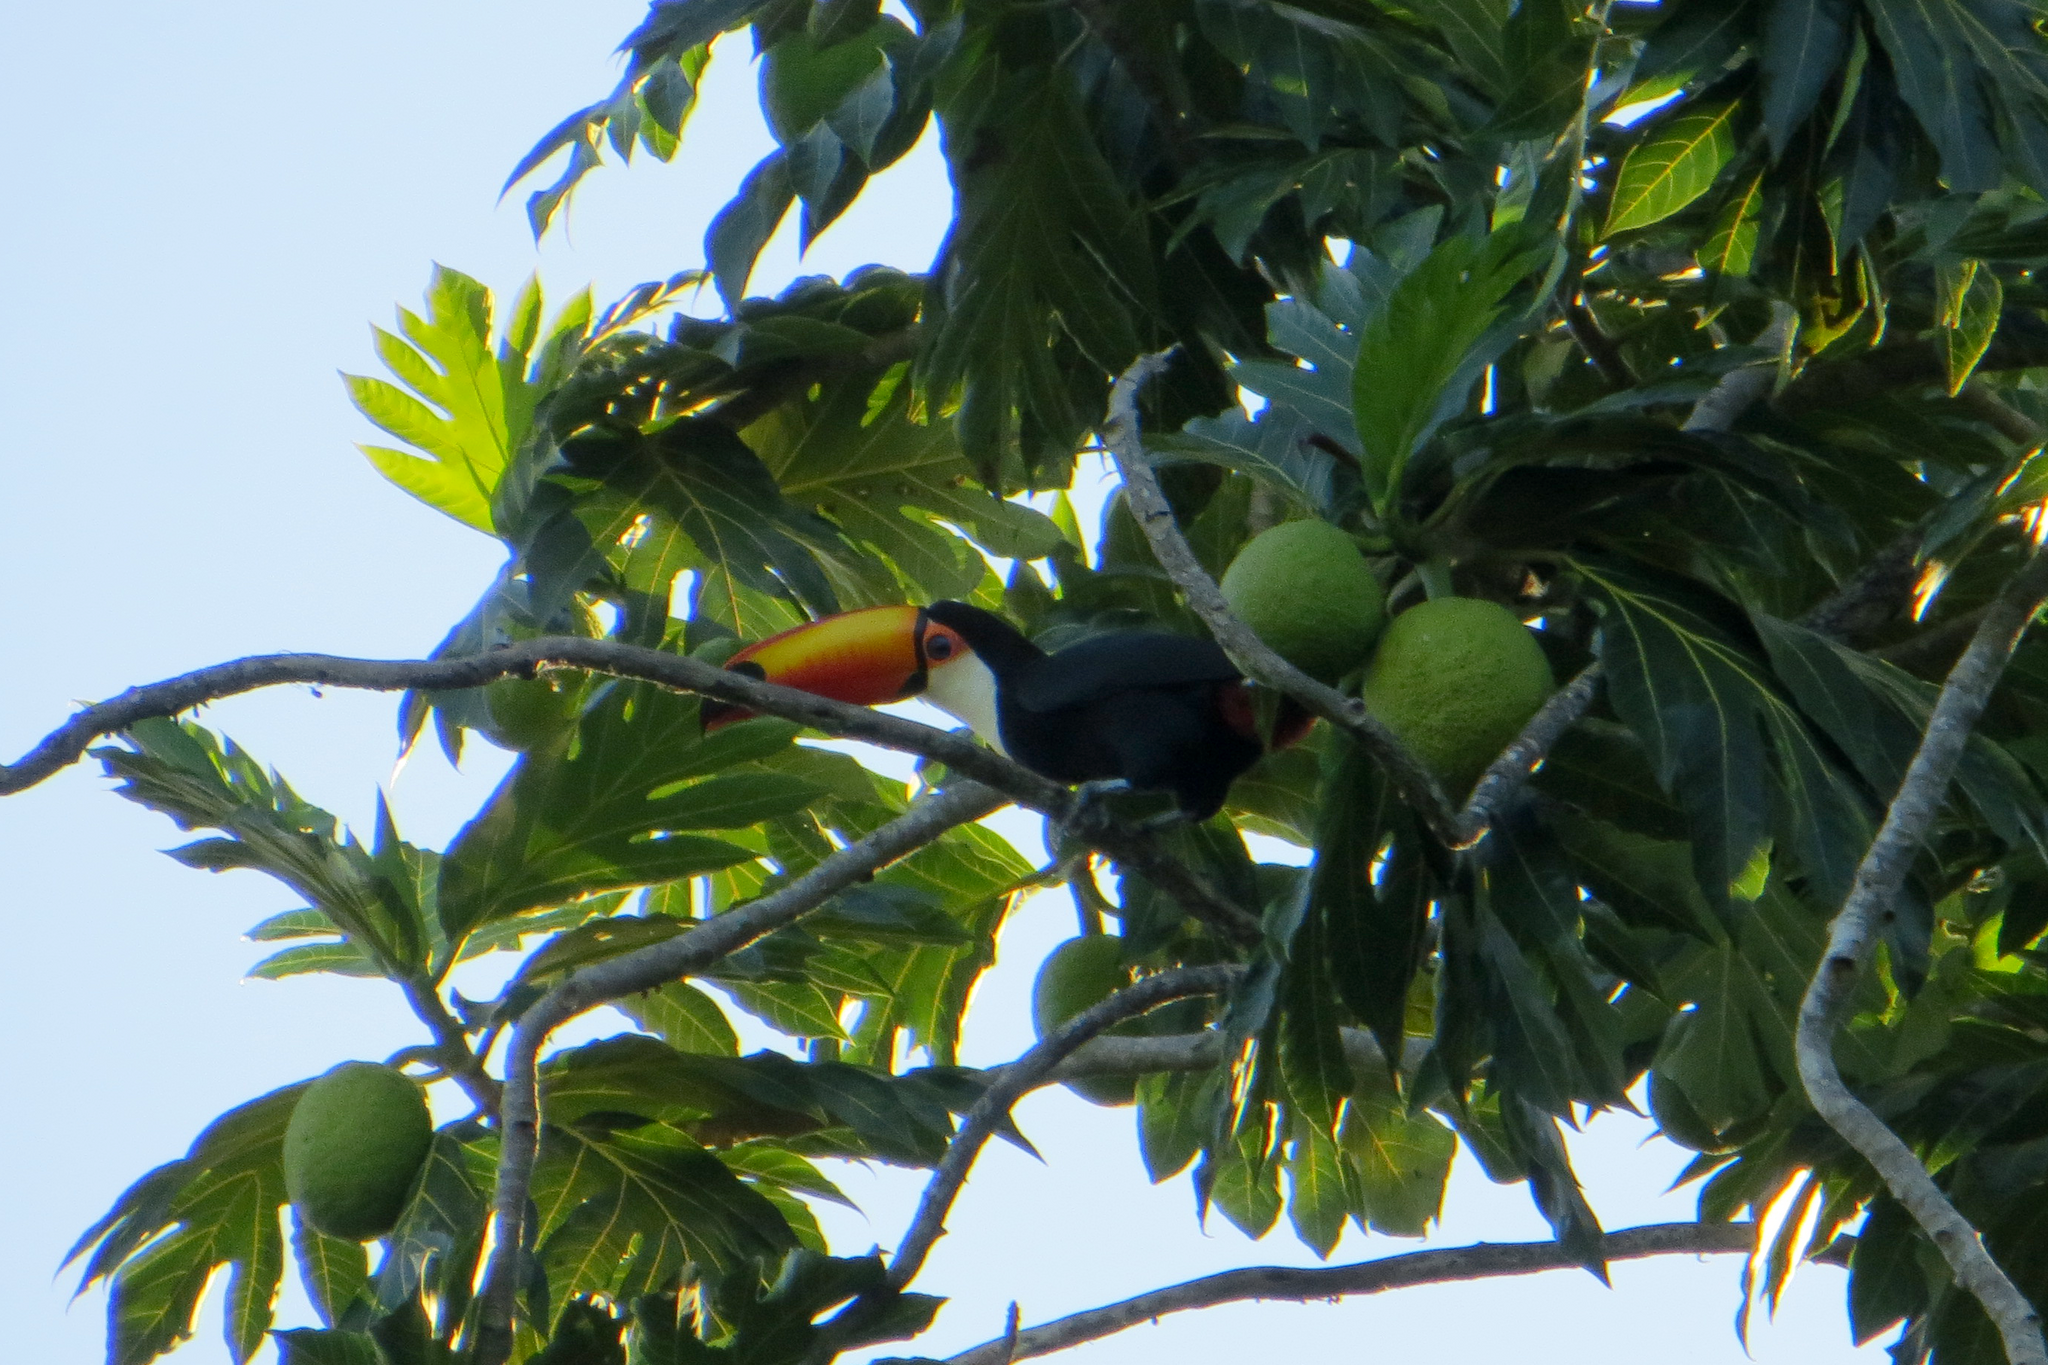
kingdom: Animalia
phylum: Chordata
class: Aves
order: Piciformes
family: Ramphastidae
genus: Ramphastos
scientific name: Ramphastos toco
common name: Toco toucan
